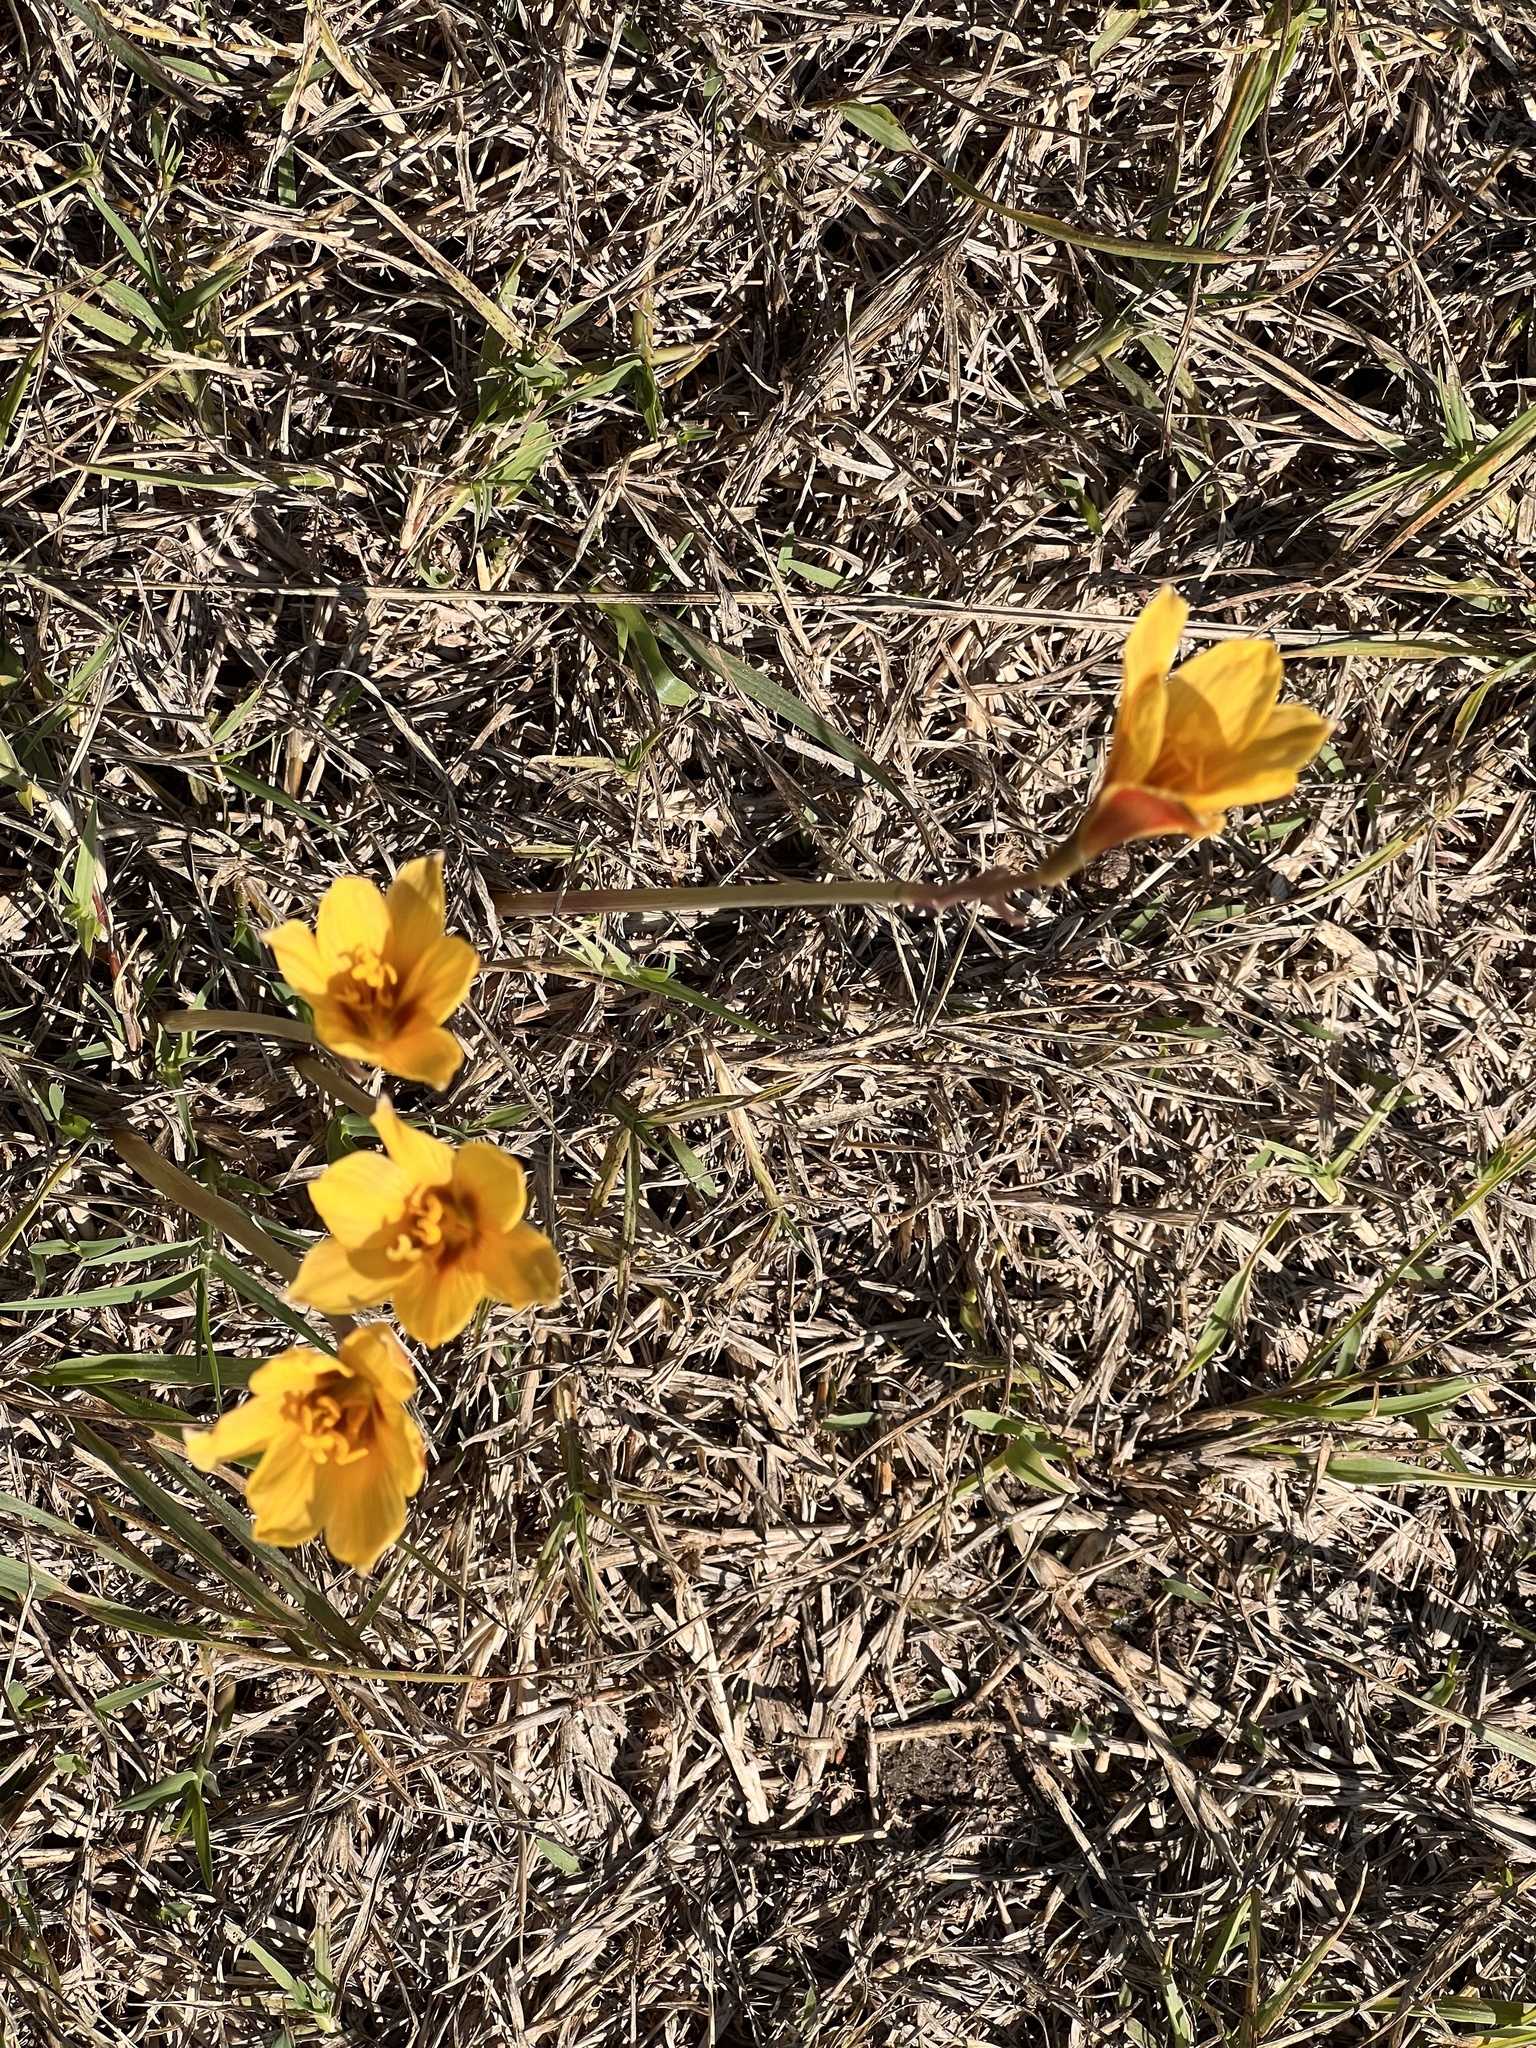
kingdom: Plantae
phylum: Tracheophyta
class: Liliopsida
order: Asparagales
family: Amaryllidaceae
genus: Zephyranthes
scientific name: Zephyranthes tubispatha
